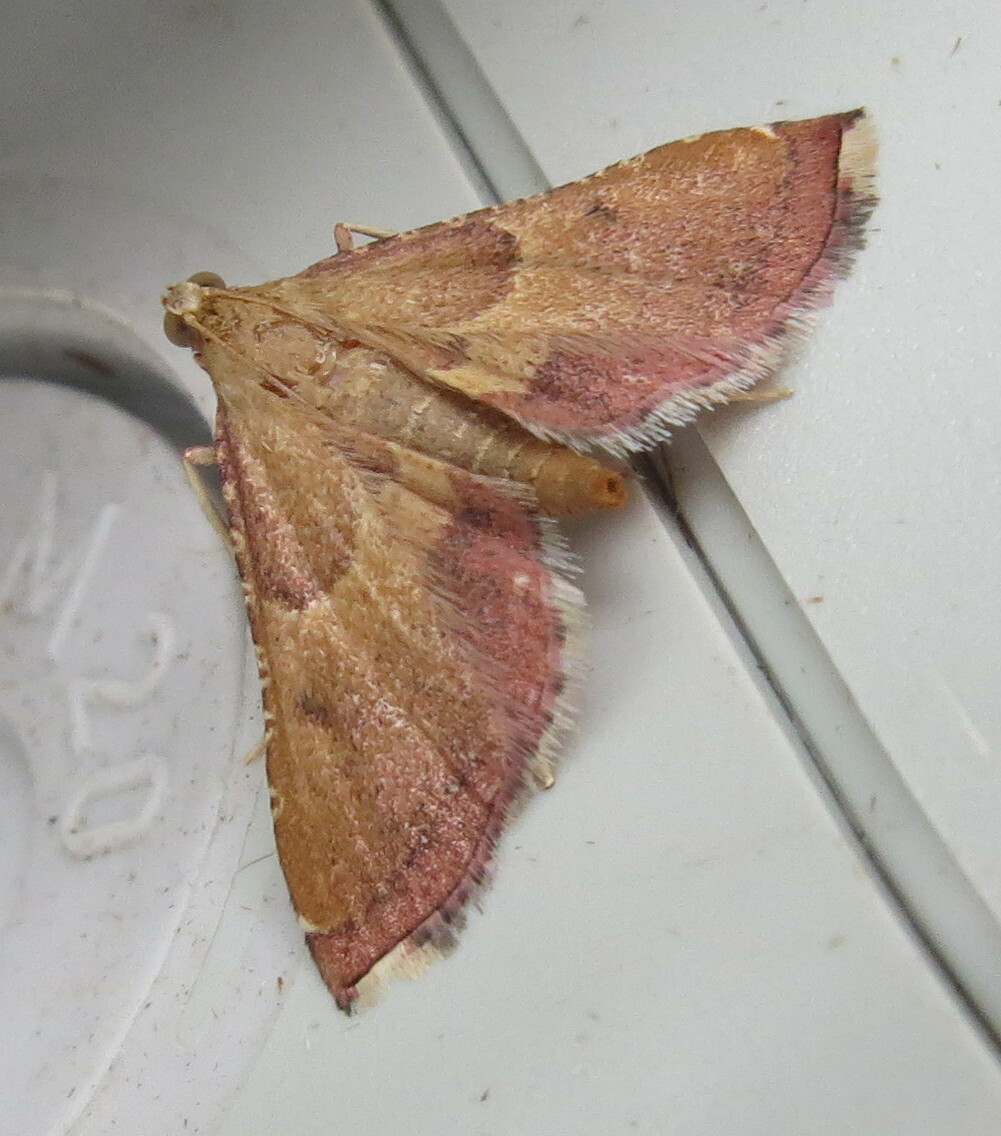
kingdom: Animalia
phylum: Arthropoda
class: Insecta
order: Lepidoptera
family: Pyralidae
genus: Endotricha
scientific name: Endotricha flammealis
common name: Rosy tabby
